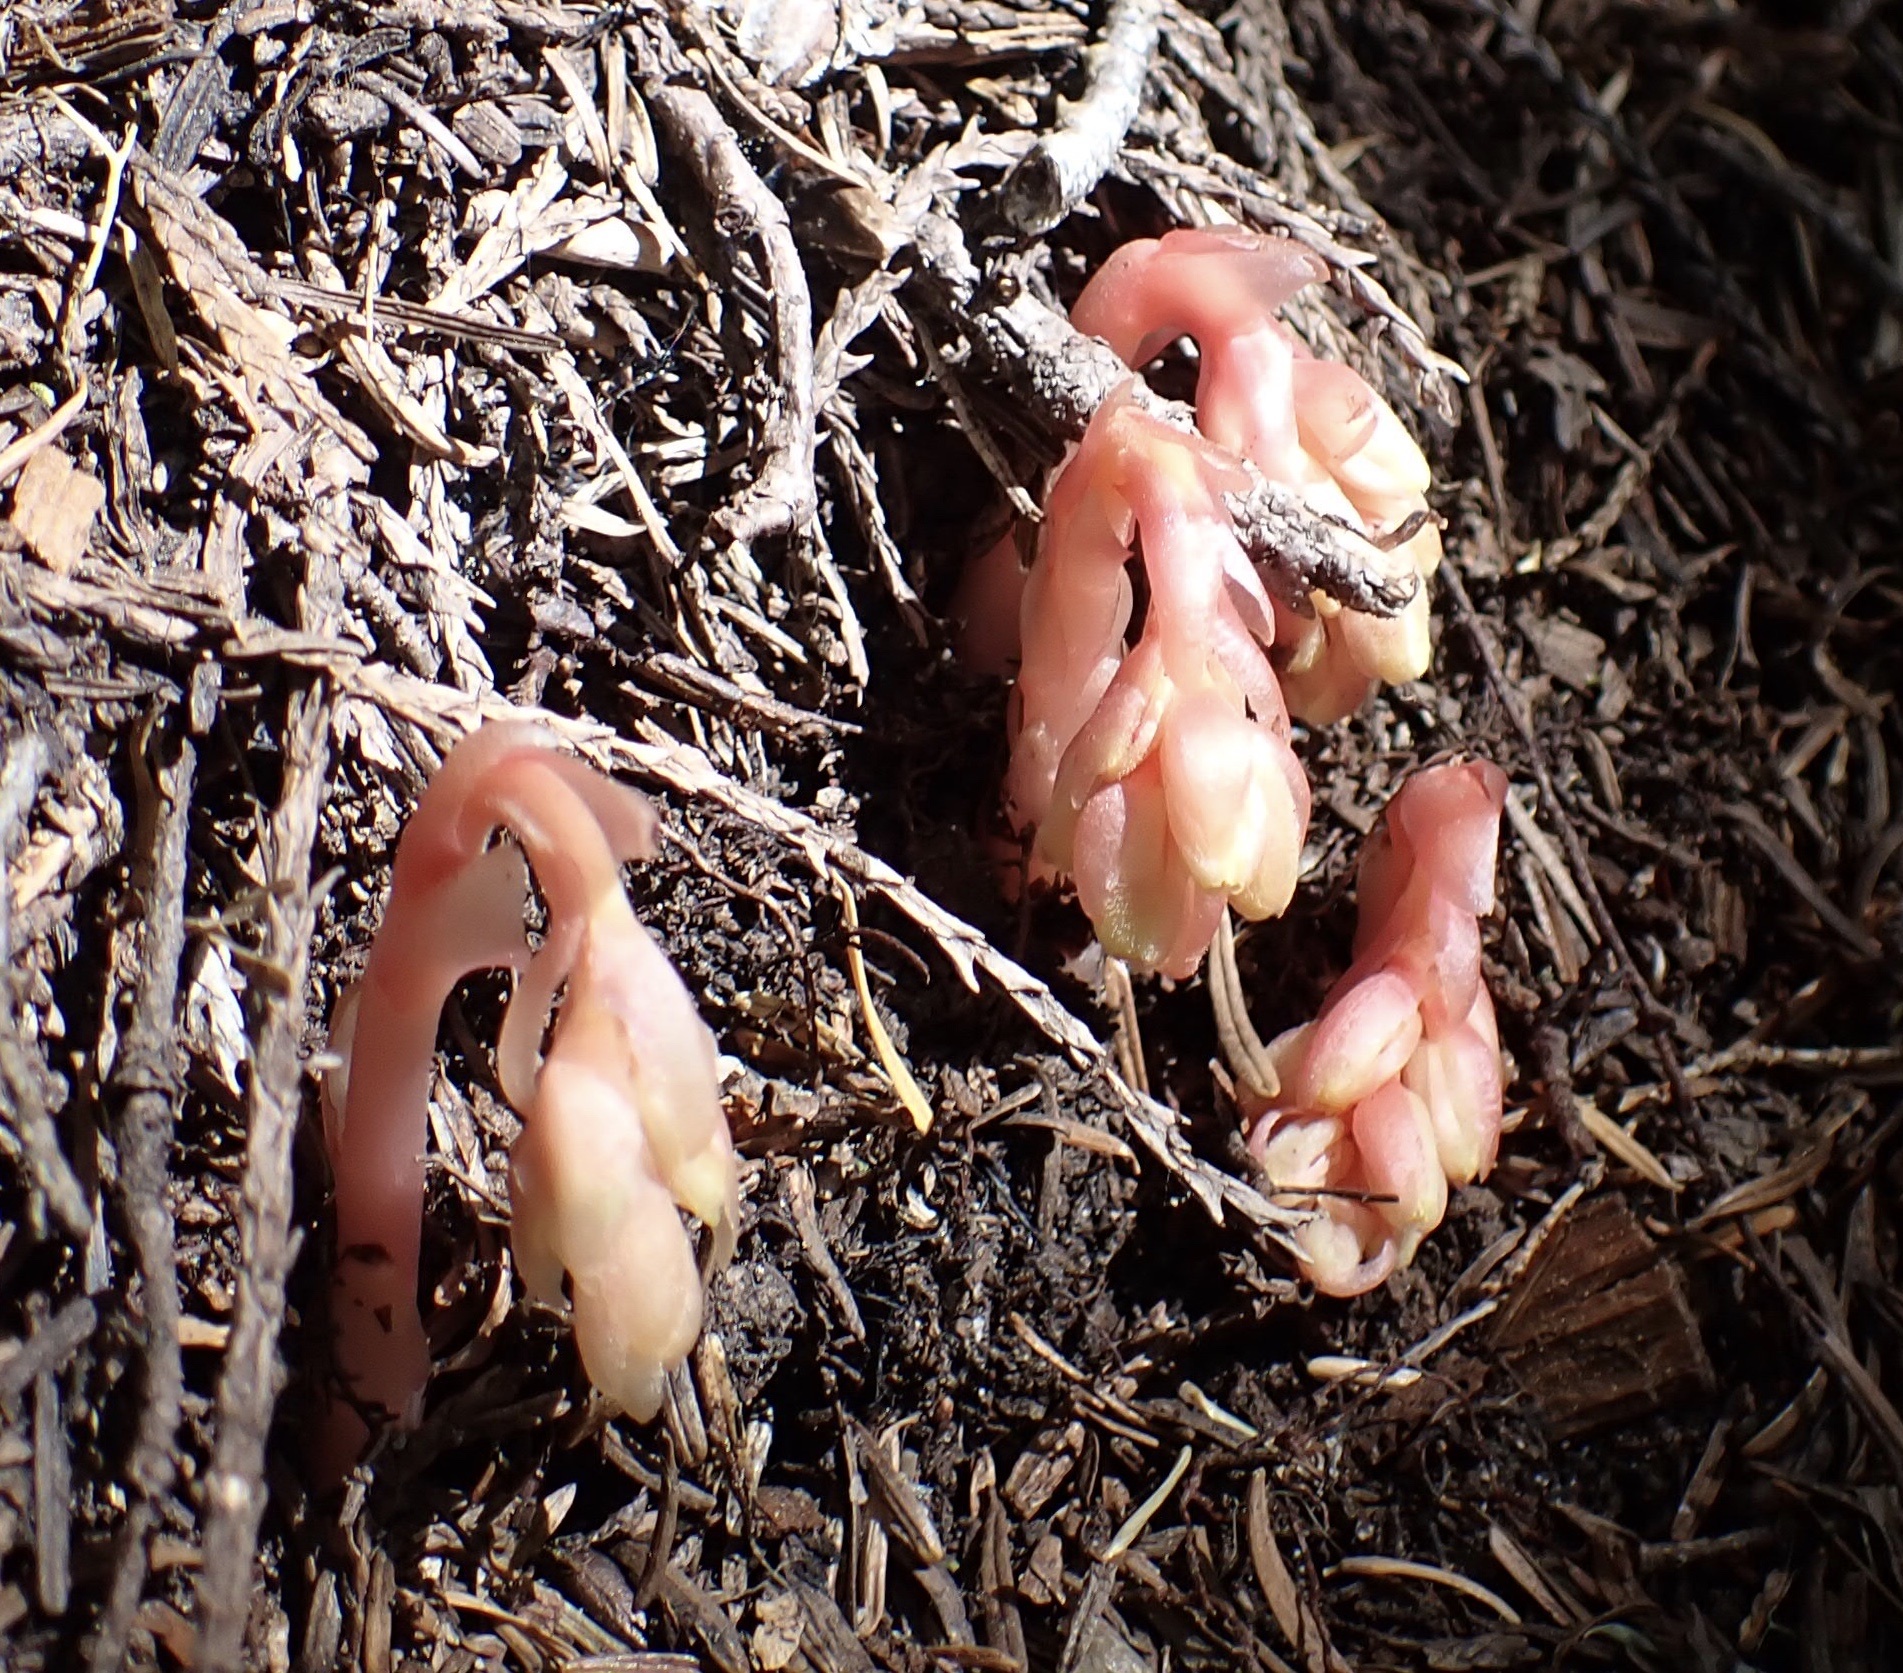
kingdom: Plantae
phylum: Tracheophyta
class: Magnoliopsida
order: Ericales
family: Ericaceae
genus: Hypopitys
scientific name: Hypopitys monotropa
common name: Yellow bird's-nest
